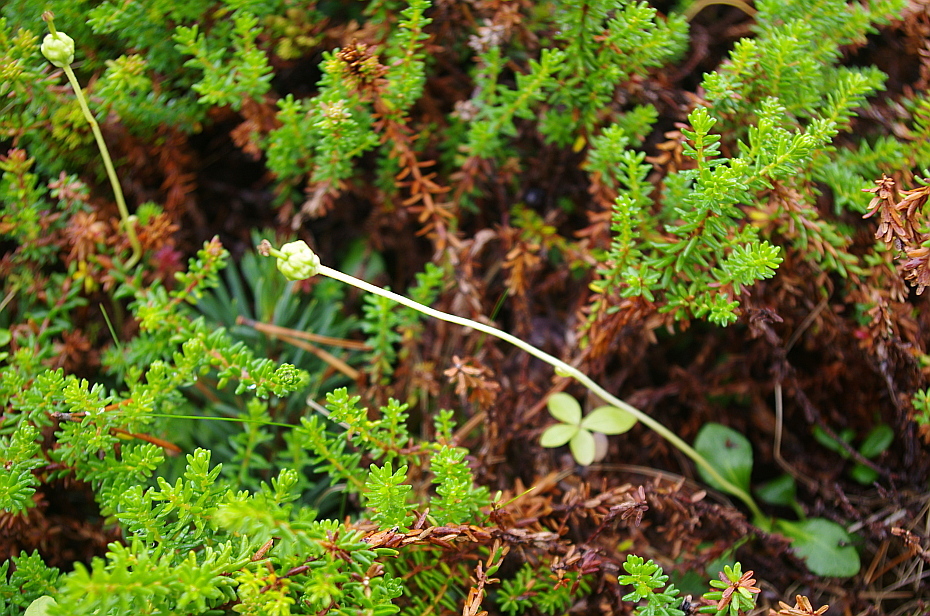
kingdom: Plantae
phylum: Tracheophyta
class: Magnoliopsida
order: Ericales
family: Ericaceae
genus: Moneses
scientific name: Moneses uniflora
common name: One-flowered wintergreen
